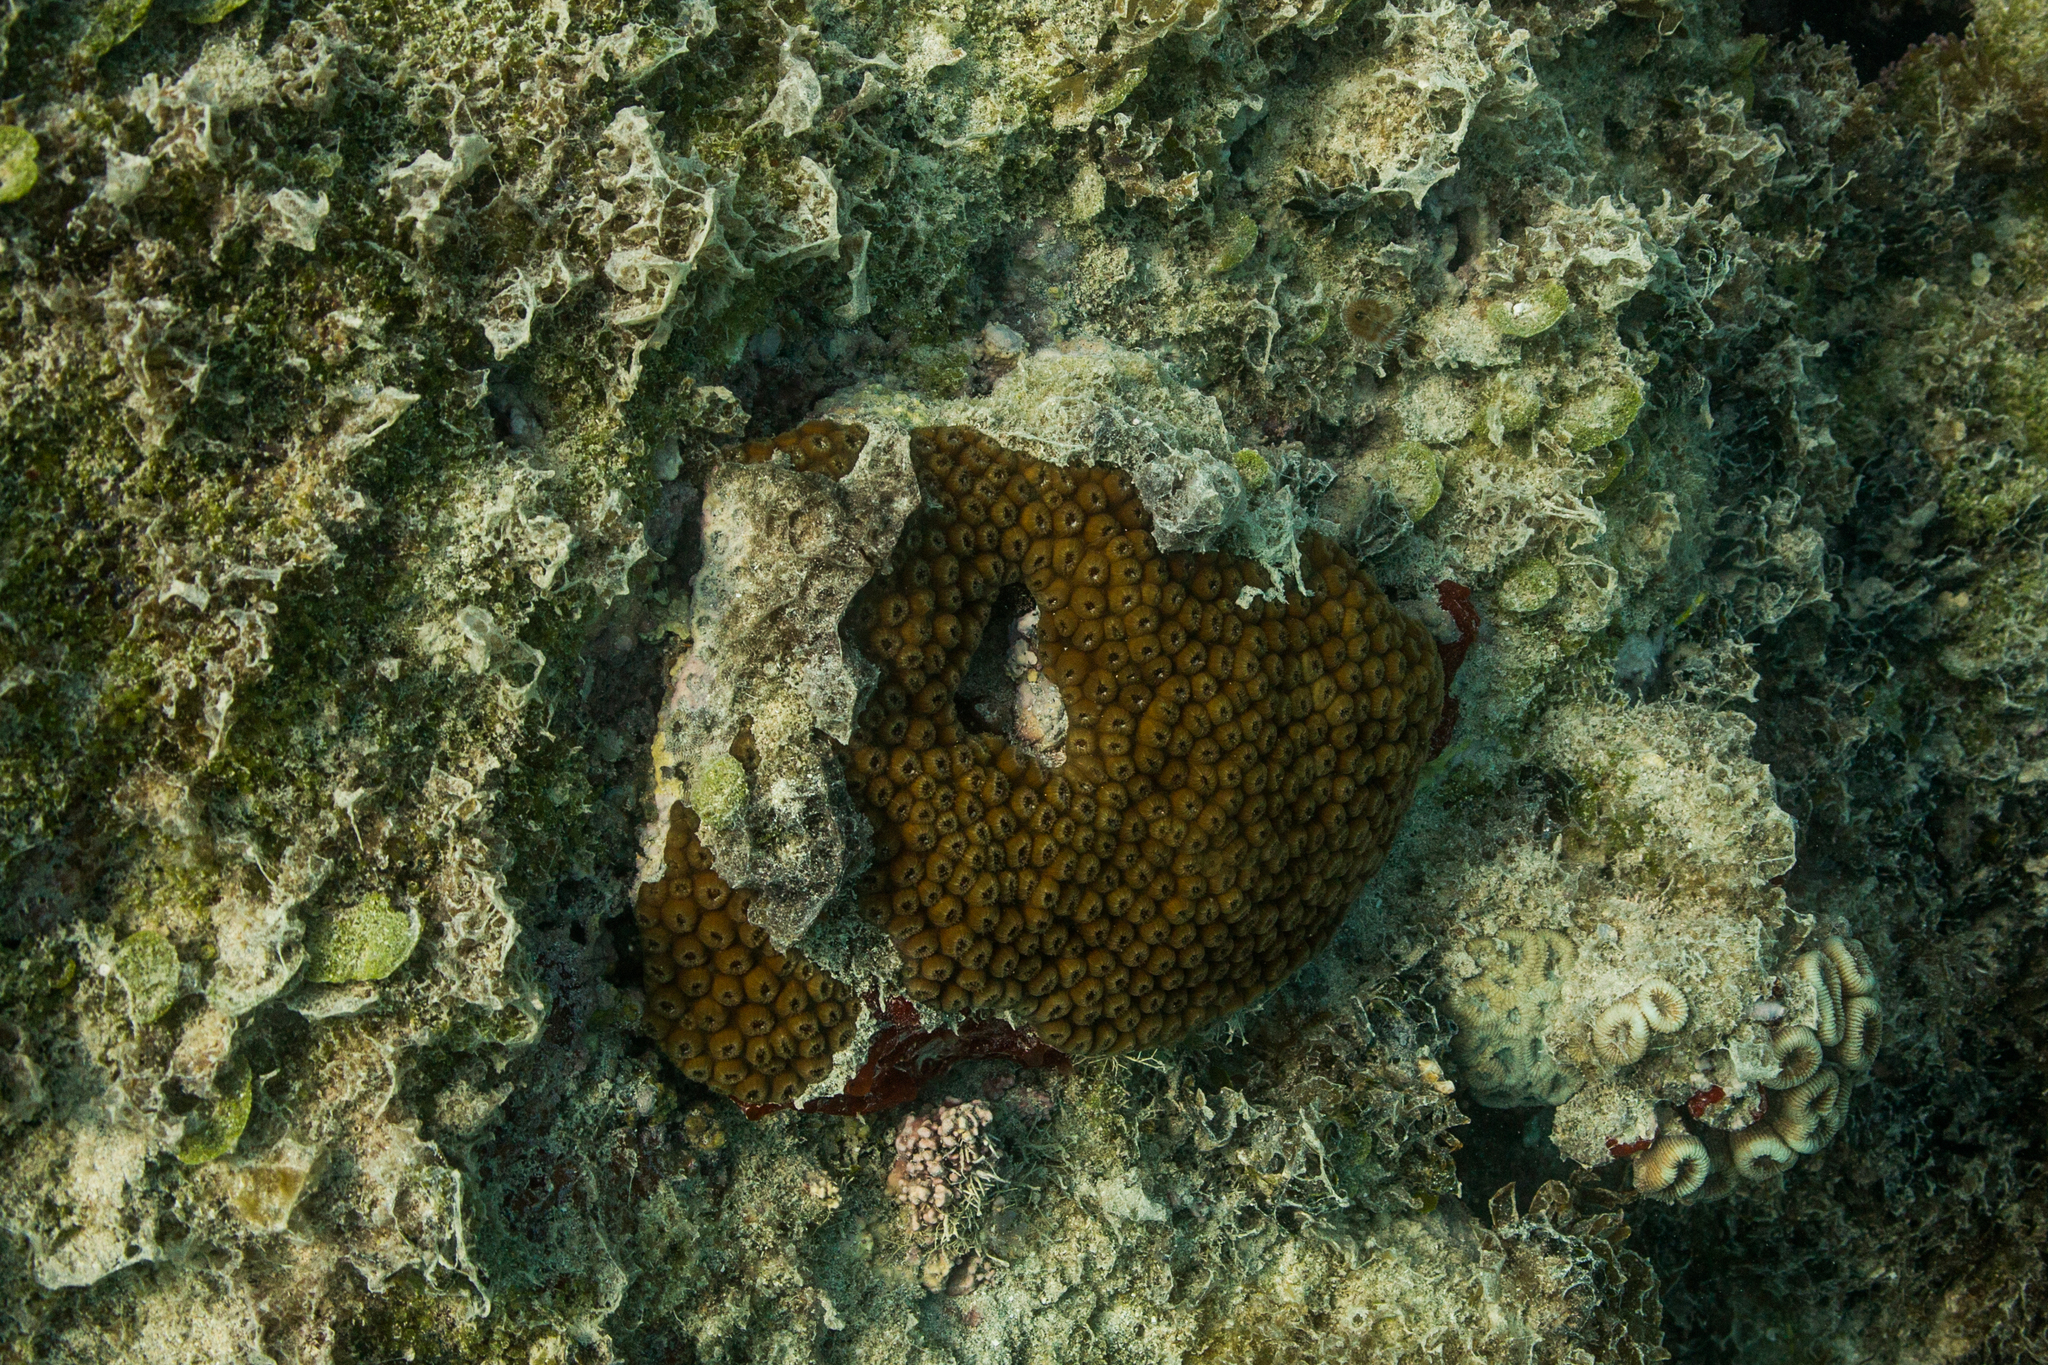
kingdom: Animalia
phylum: Cnidaria
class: Anthozoa
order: Scleractinia
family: Montastraeidae
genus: Montastraea
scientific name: Montastraea cavernosa
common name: Great star coral
